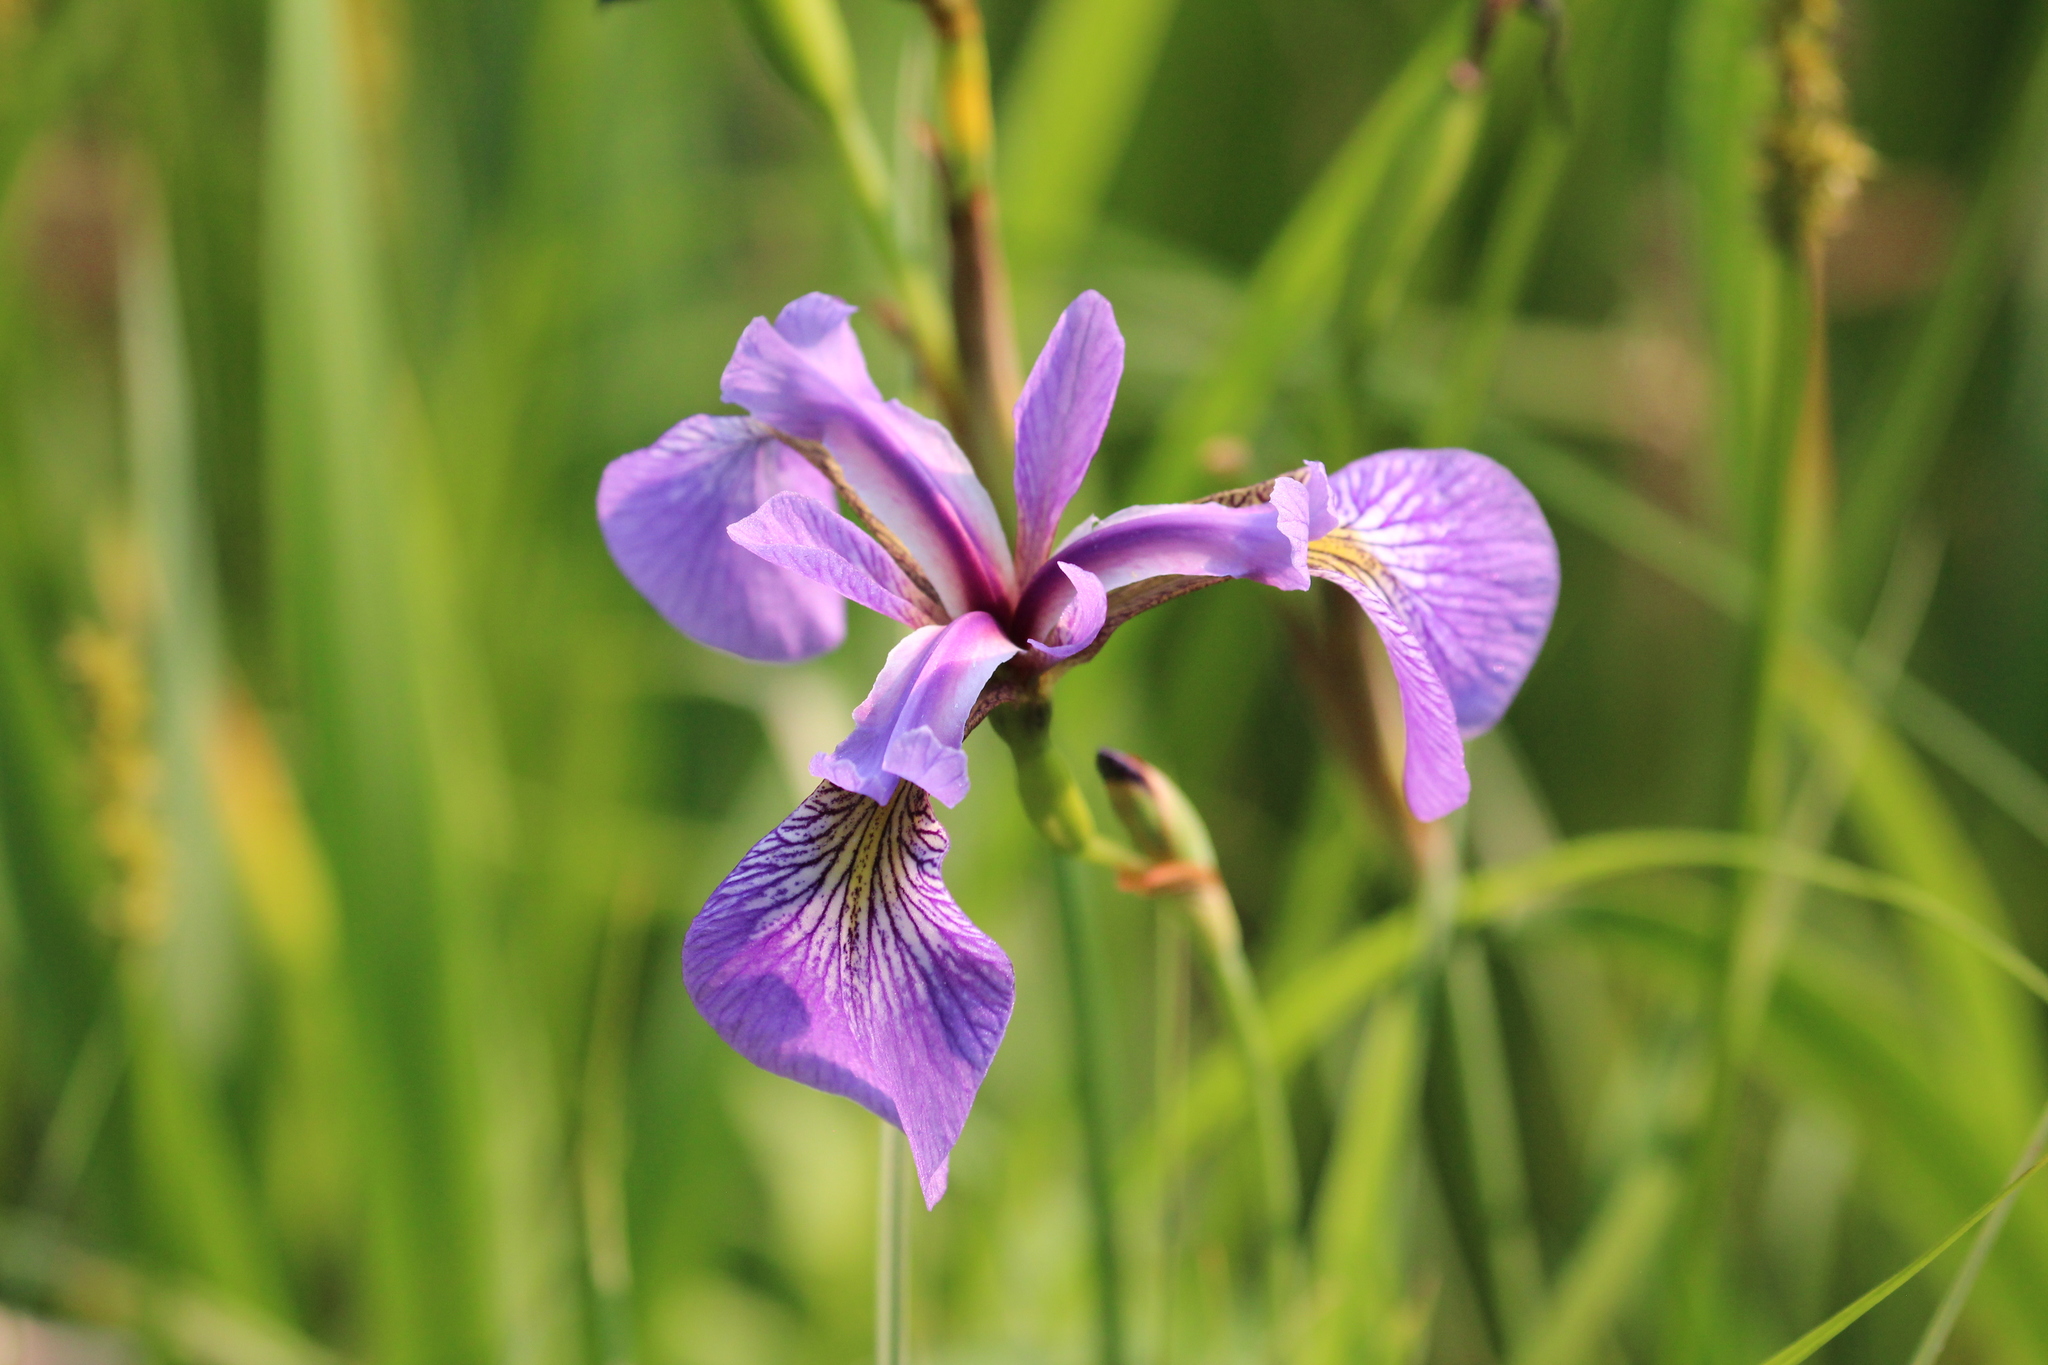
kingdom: Plantae
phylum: Tracheophyta
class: Liliopsida
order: Asparagales
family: Iridaceae
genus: Iris
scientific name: Iris versicolor
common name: Purple iris
